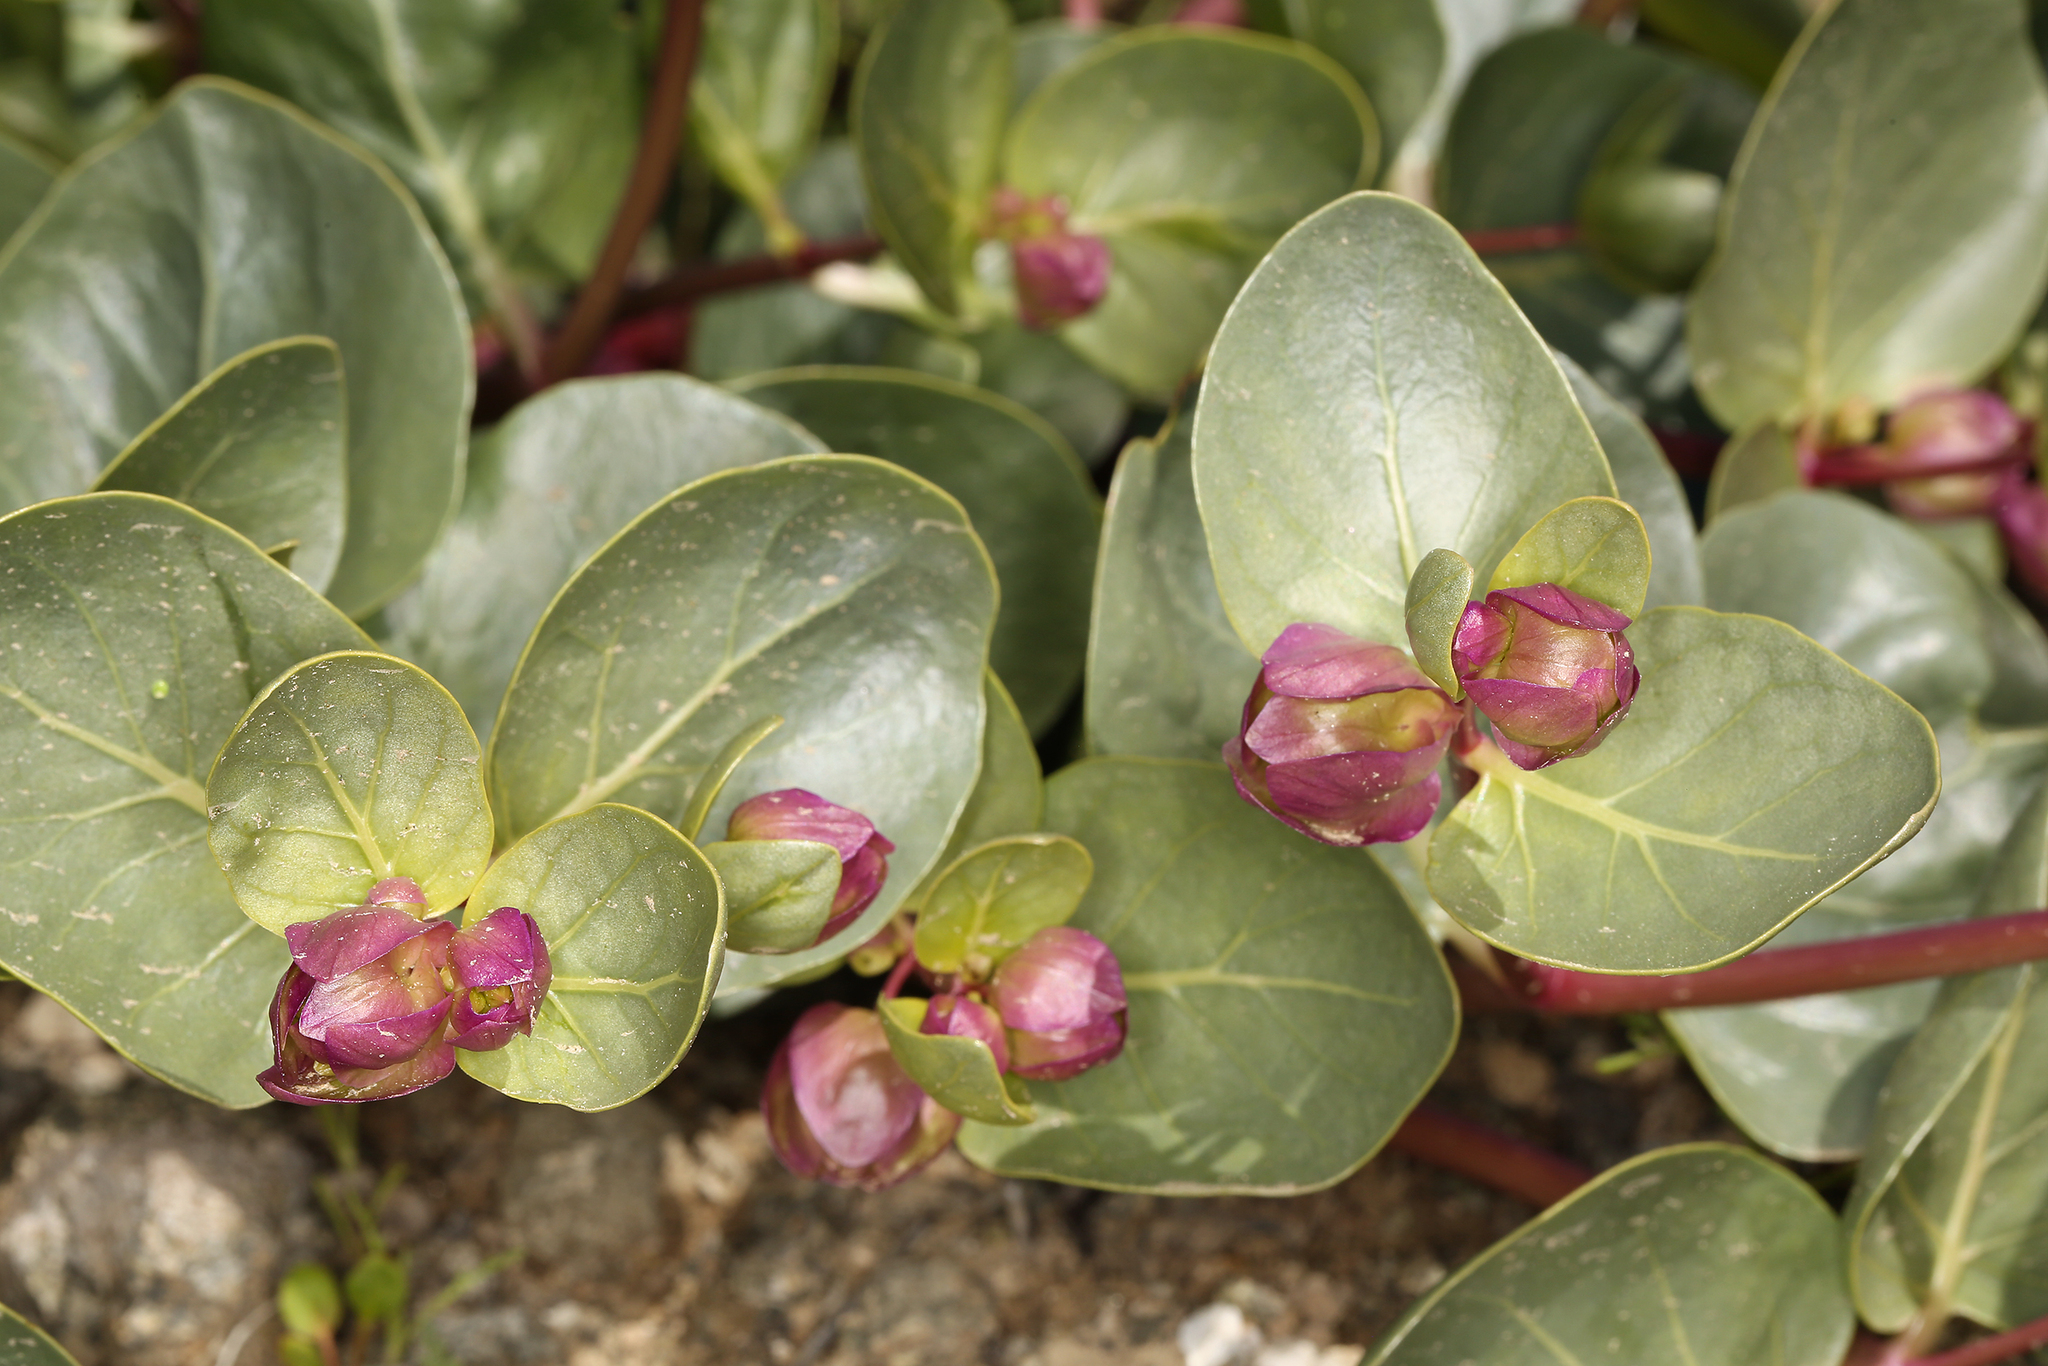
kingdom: Plantae
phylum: Tracheophyta
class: Magnoliopsida
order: Caryophyllales
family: Nyctaginaceae
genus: Mirabilis
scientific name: Mirabilis alipes
